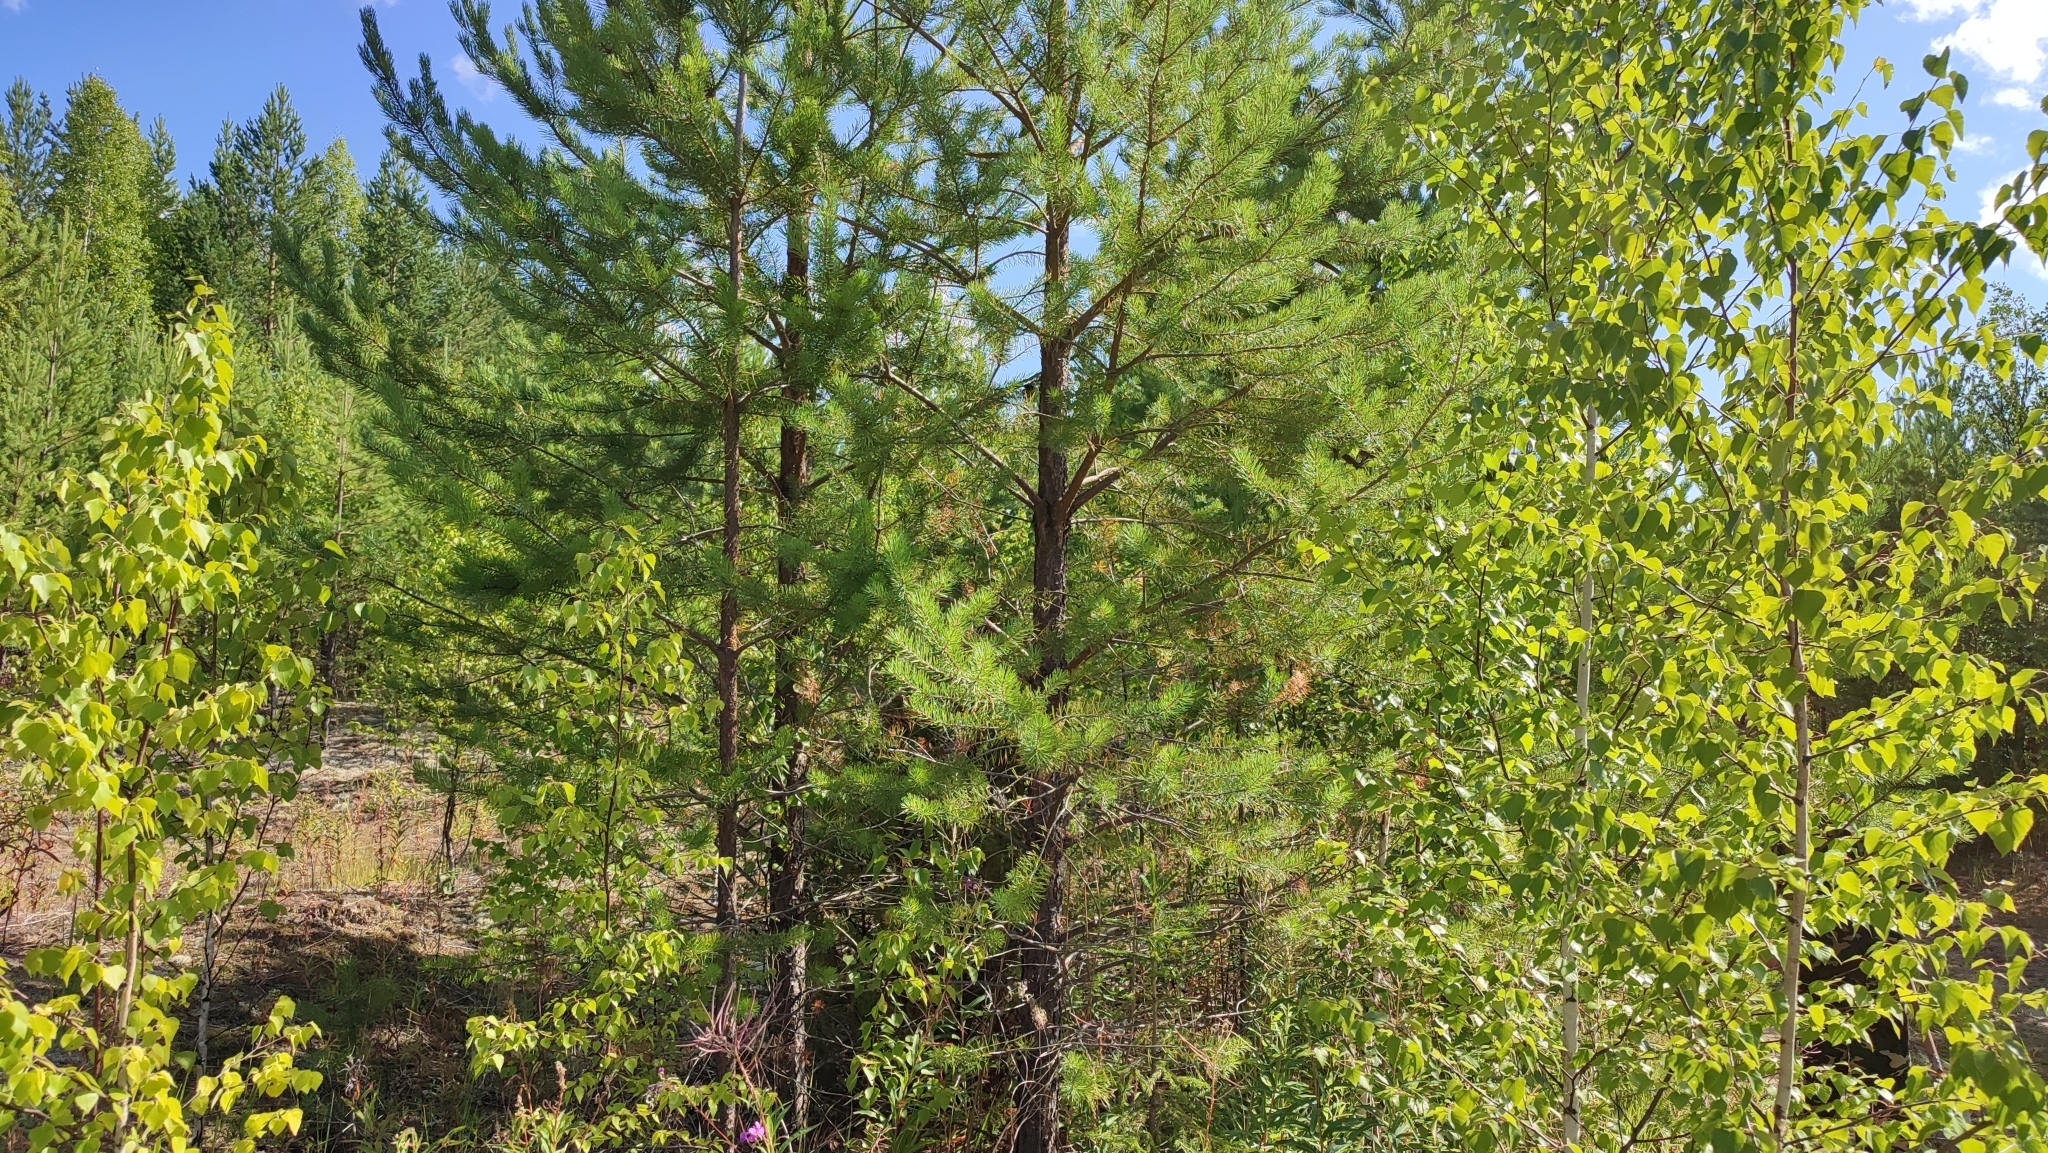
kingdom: Plantae
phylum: Tracheophyta
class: Pinopsida
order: Pinales
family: Pinaceae
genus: Pinus
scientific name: Pinus sylvestris
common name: Scots pine
